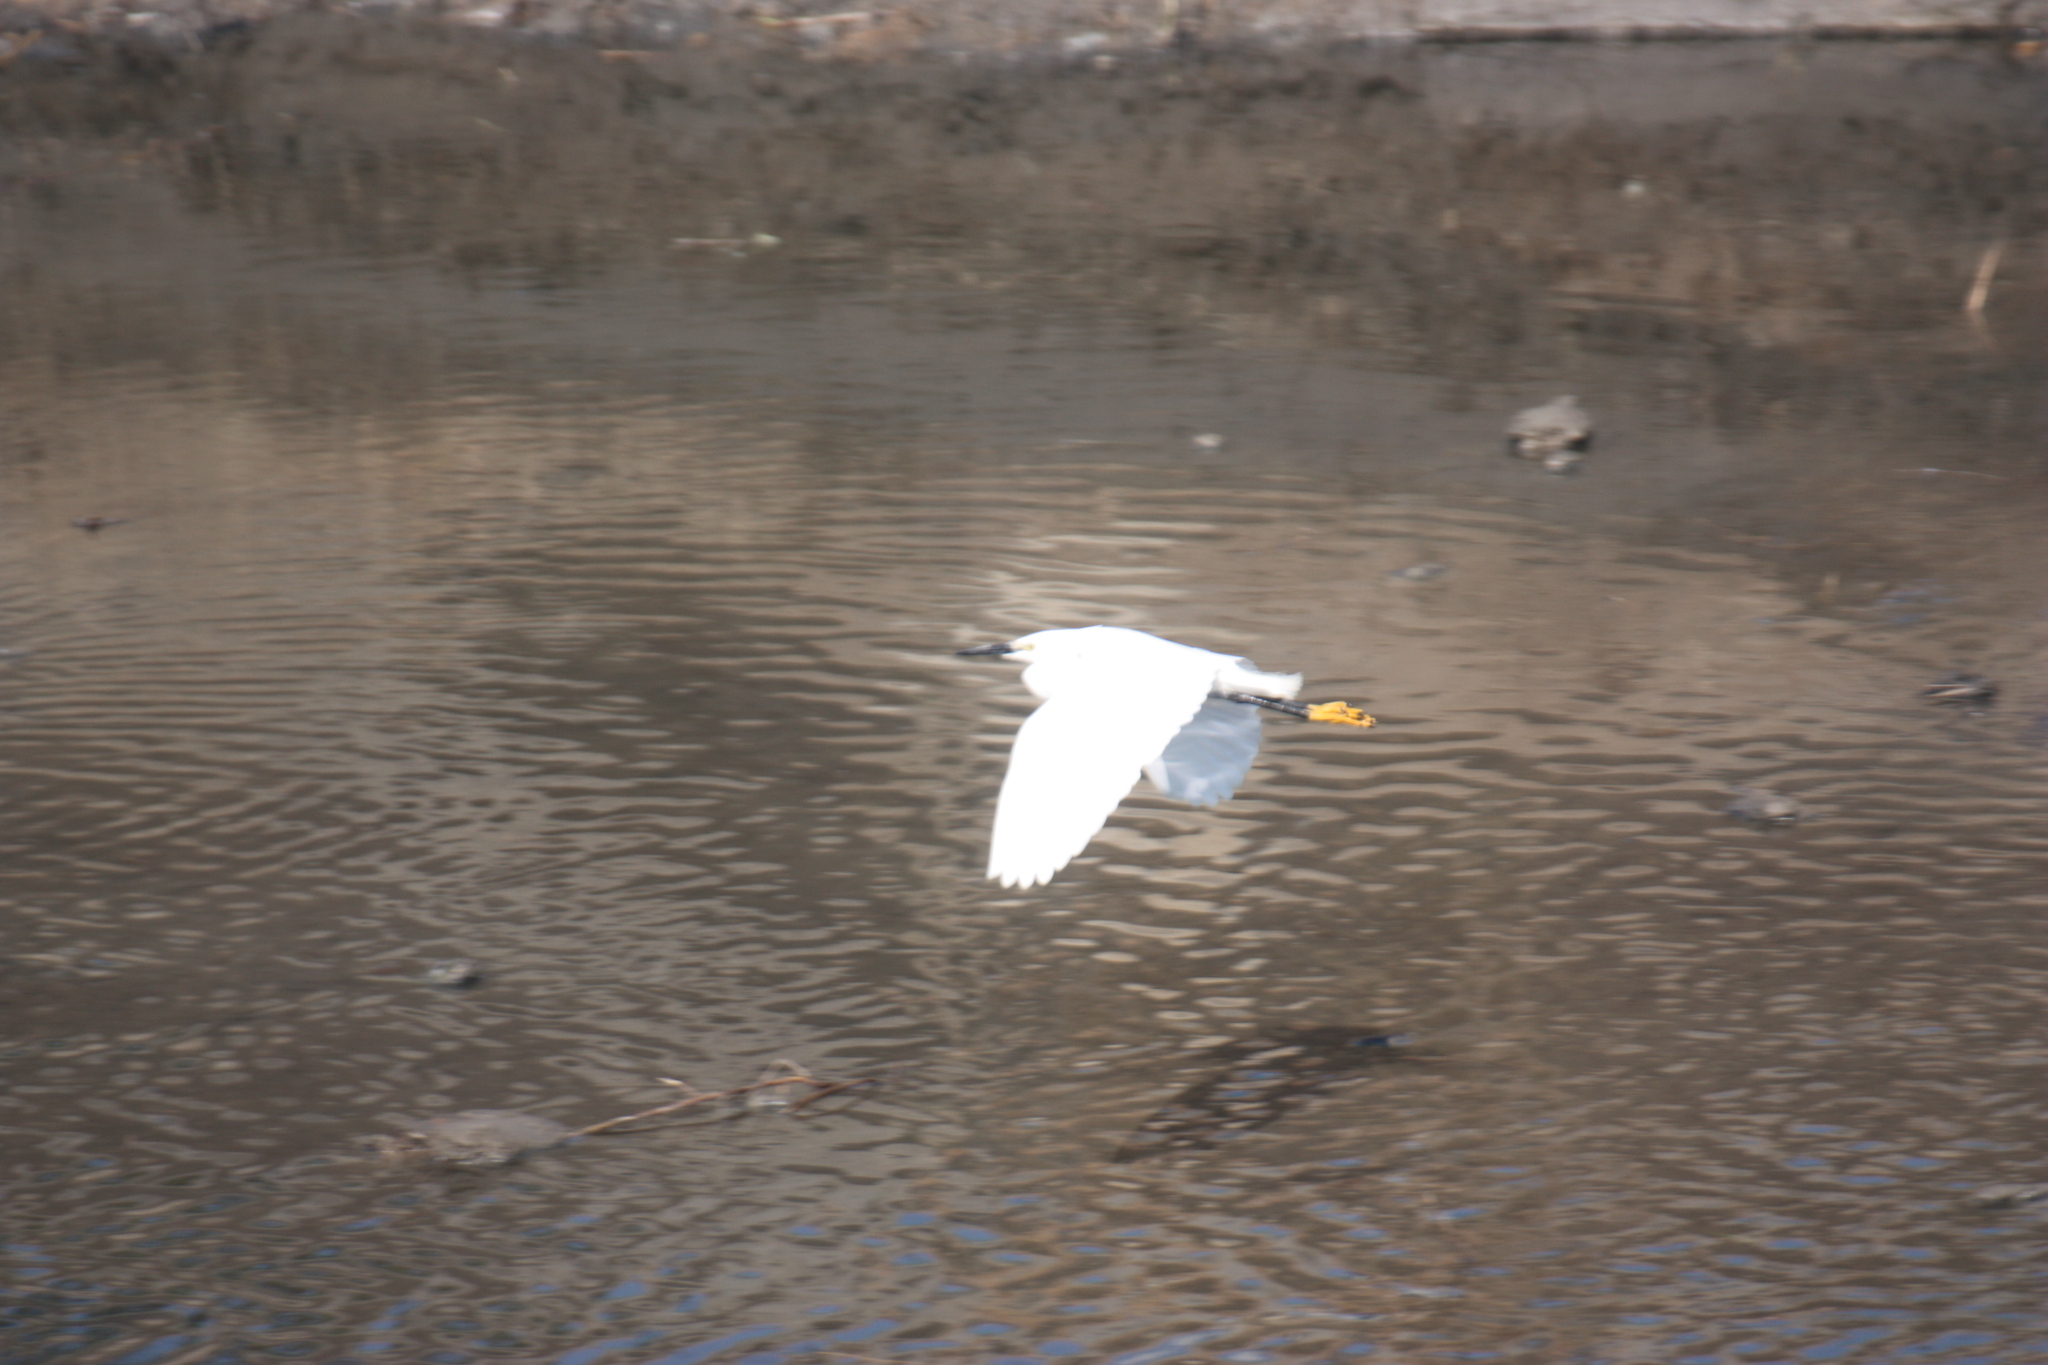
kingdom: Animalia
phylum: Chordata
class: Aves
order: Pelecaniformes
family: Ardeidae
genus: Egretta
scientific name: Egretta garzetta
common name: Little egret
